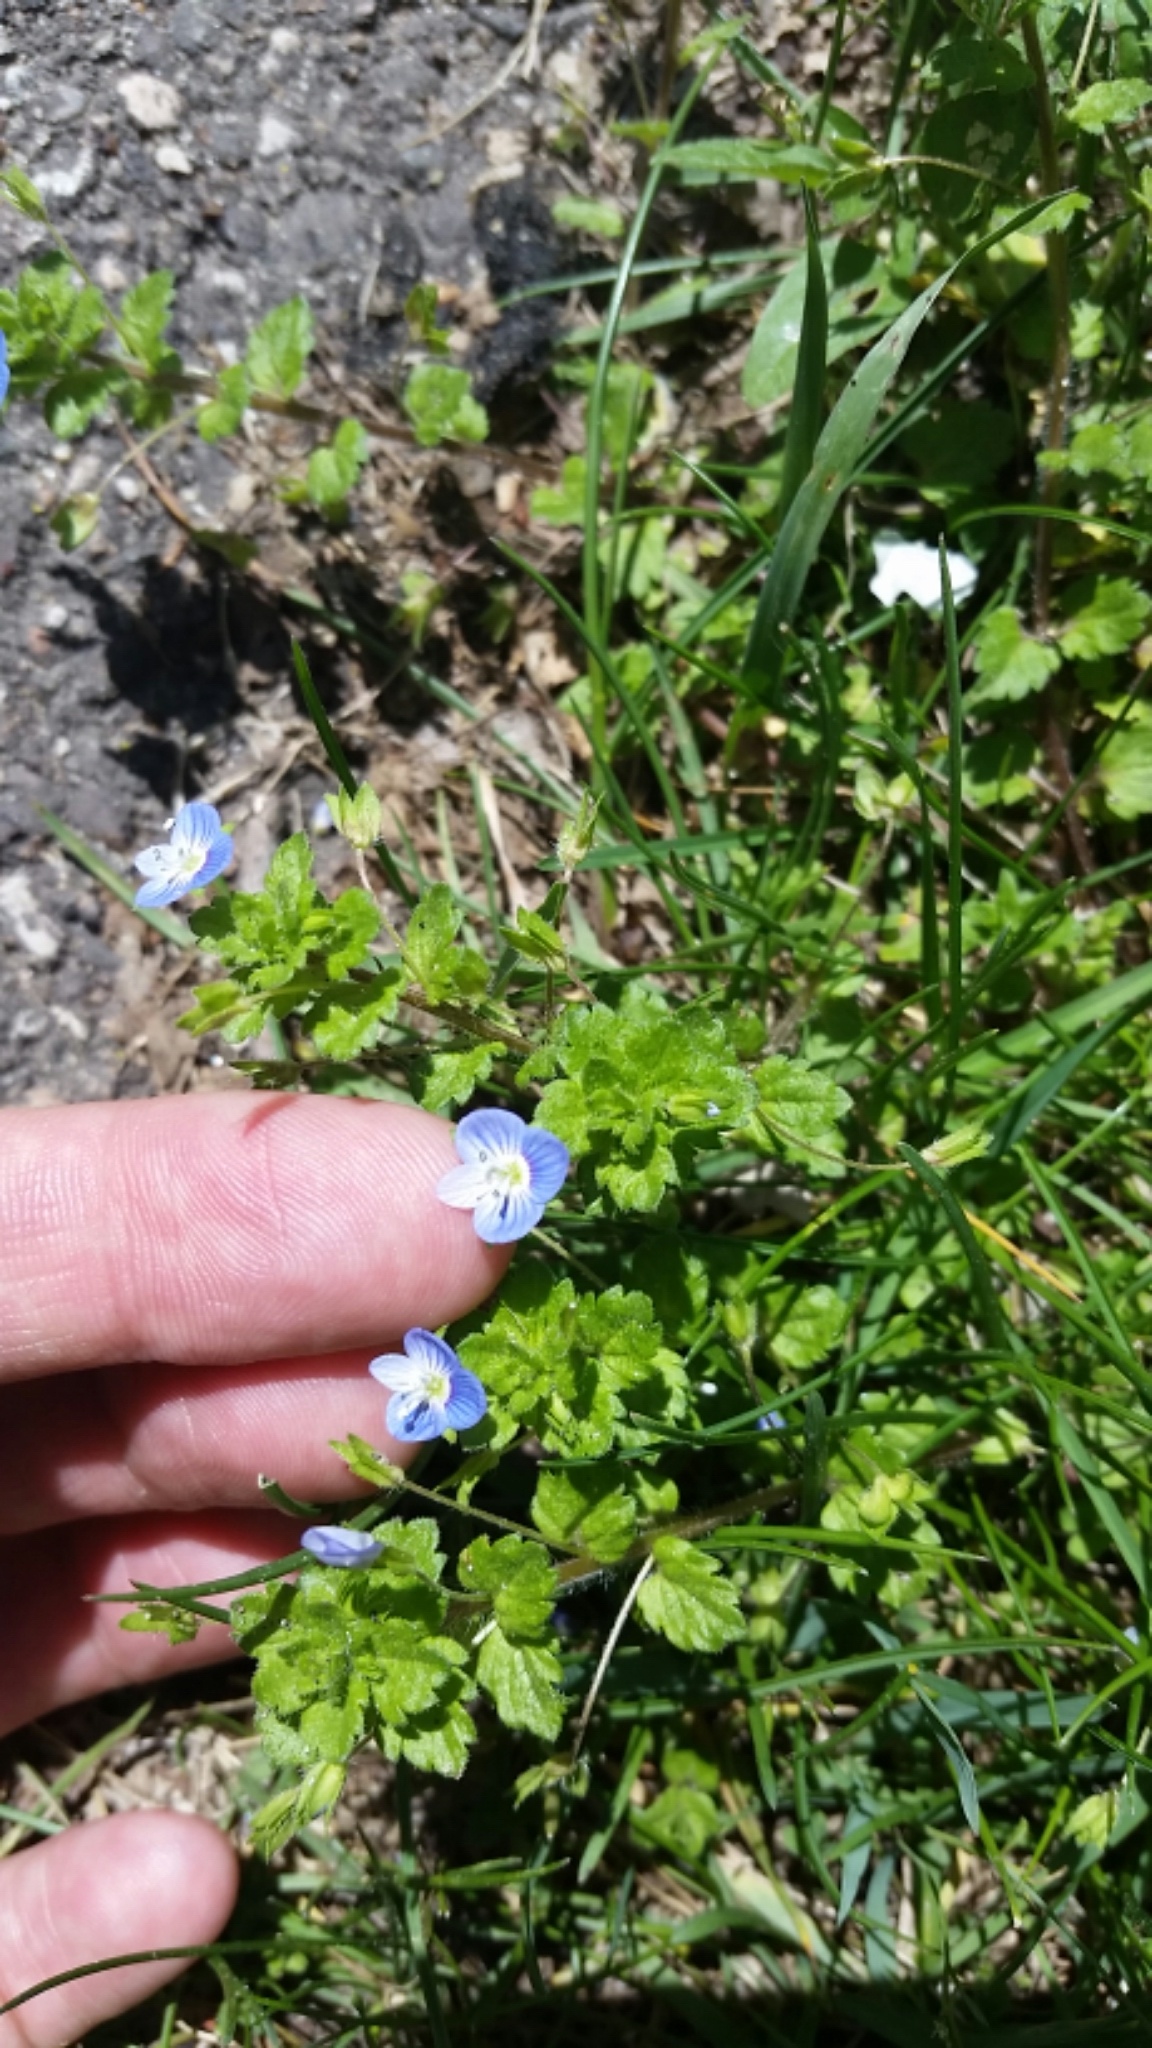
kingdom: Plantae
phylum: Tracheophyta
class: Magnoliopsida
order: Lamiales
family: Plantaginaceae
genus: Veronica
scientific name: Veronica persica
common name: Common field-speedwell
